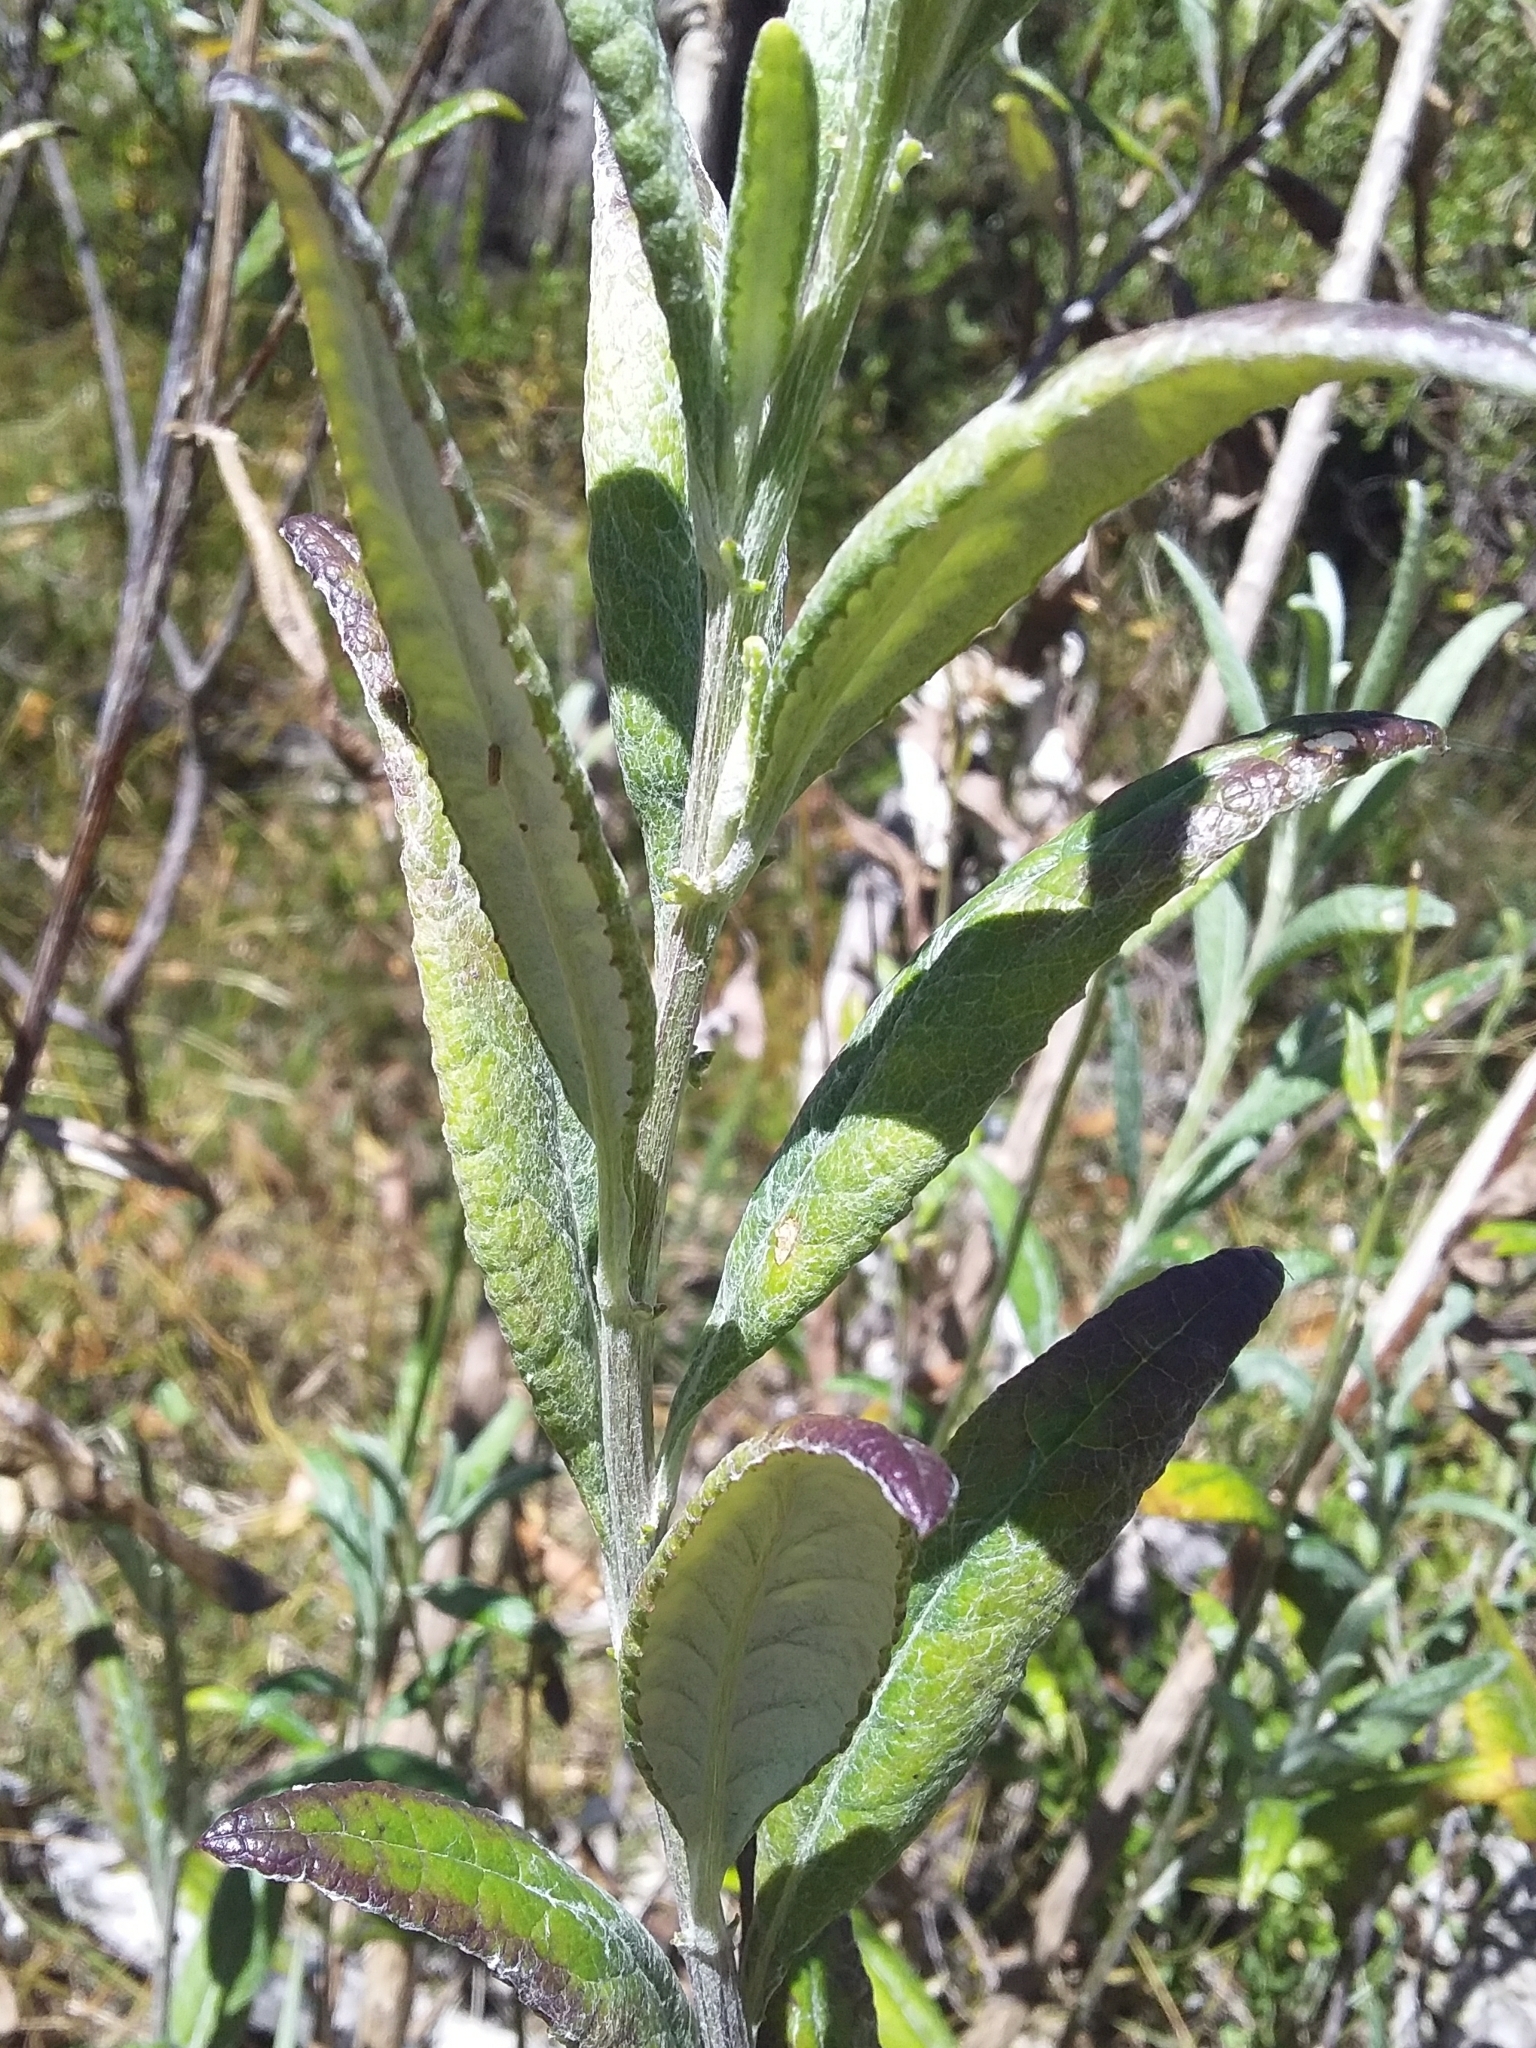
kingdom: Plantae
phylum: Tracheophyta
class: Magnoliopsida
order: Asterales
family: Asteraceae
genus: Senecio
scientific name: Senecio hypoleucus
